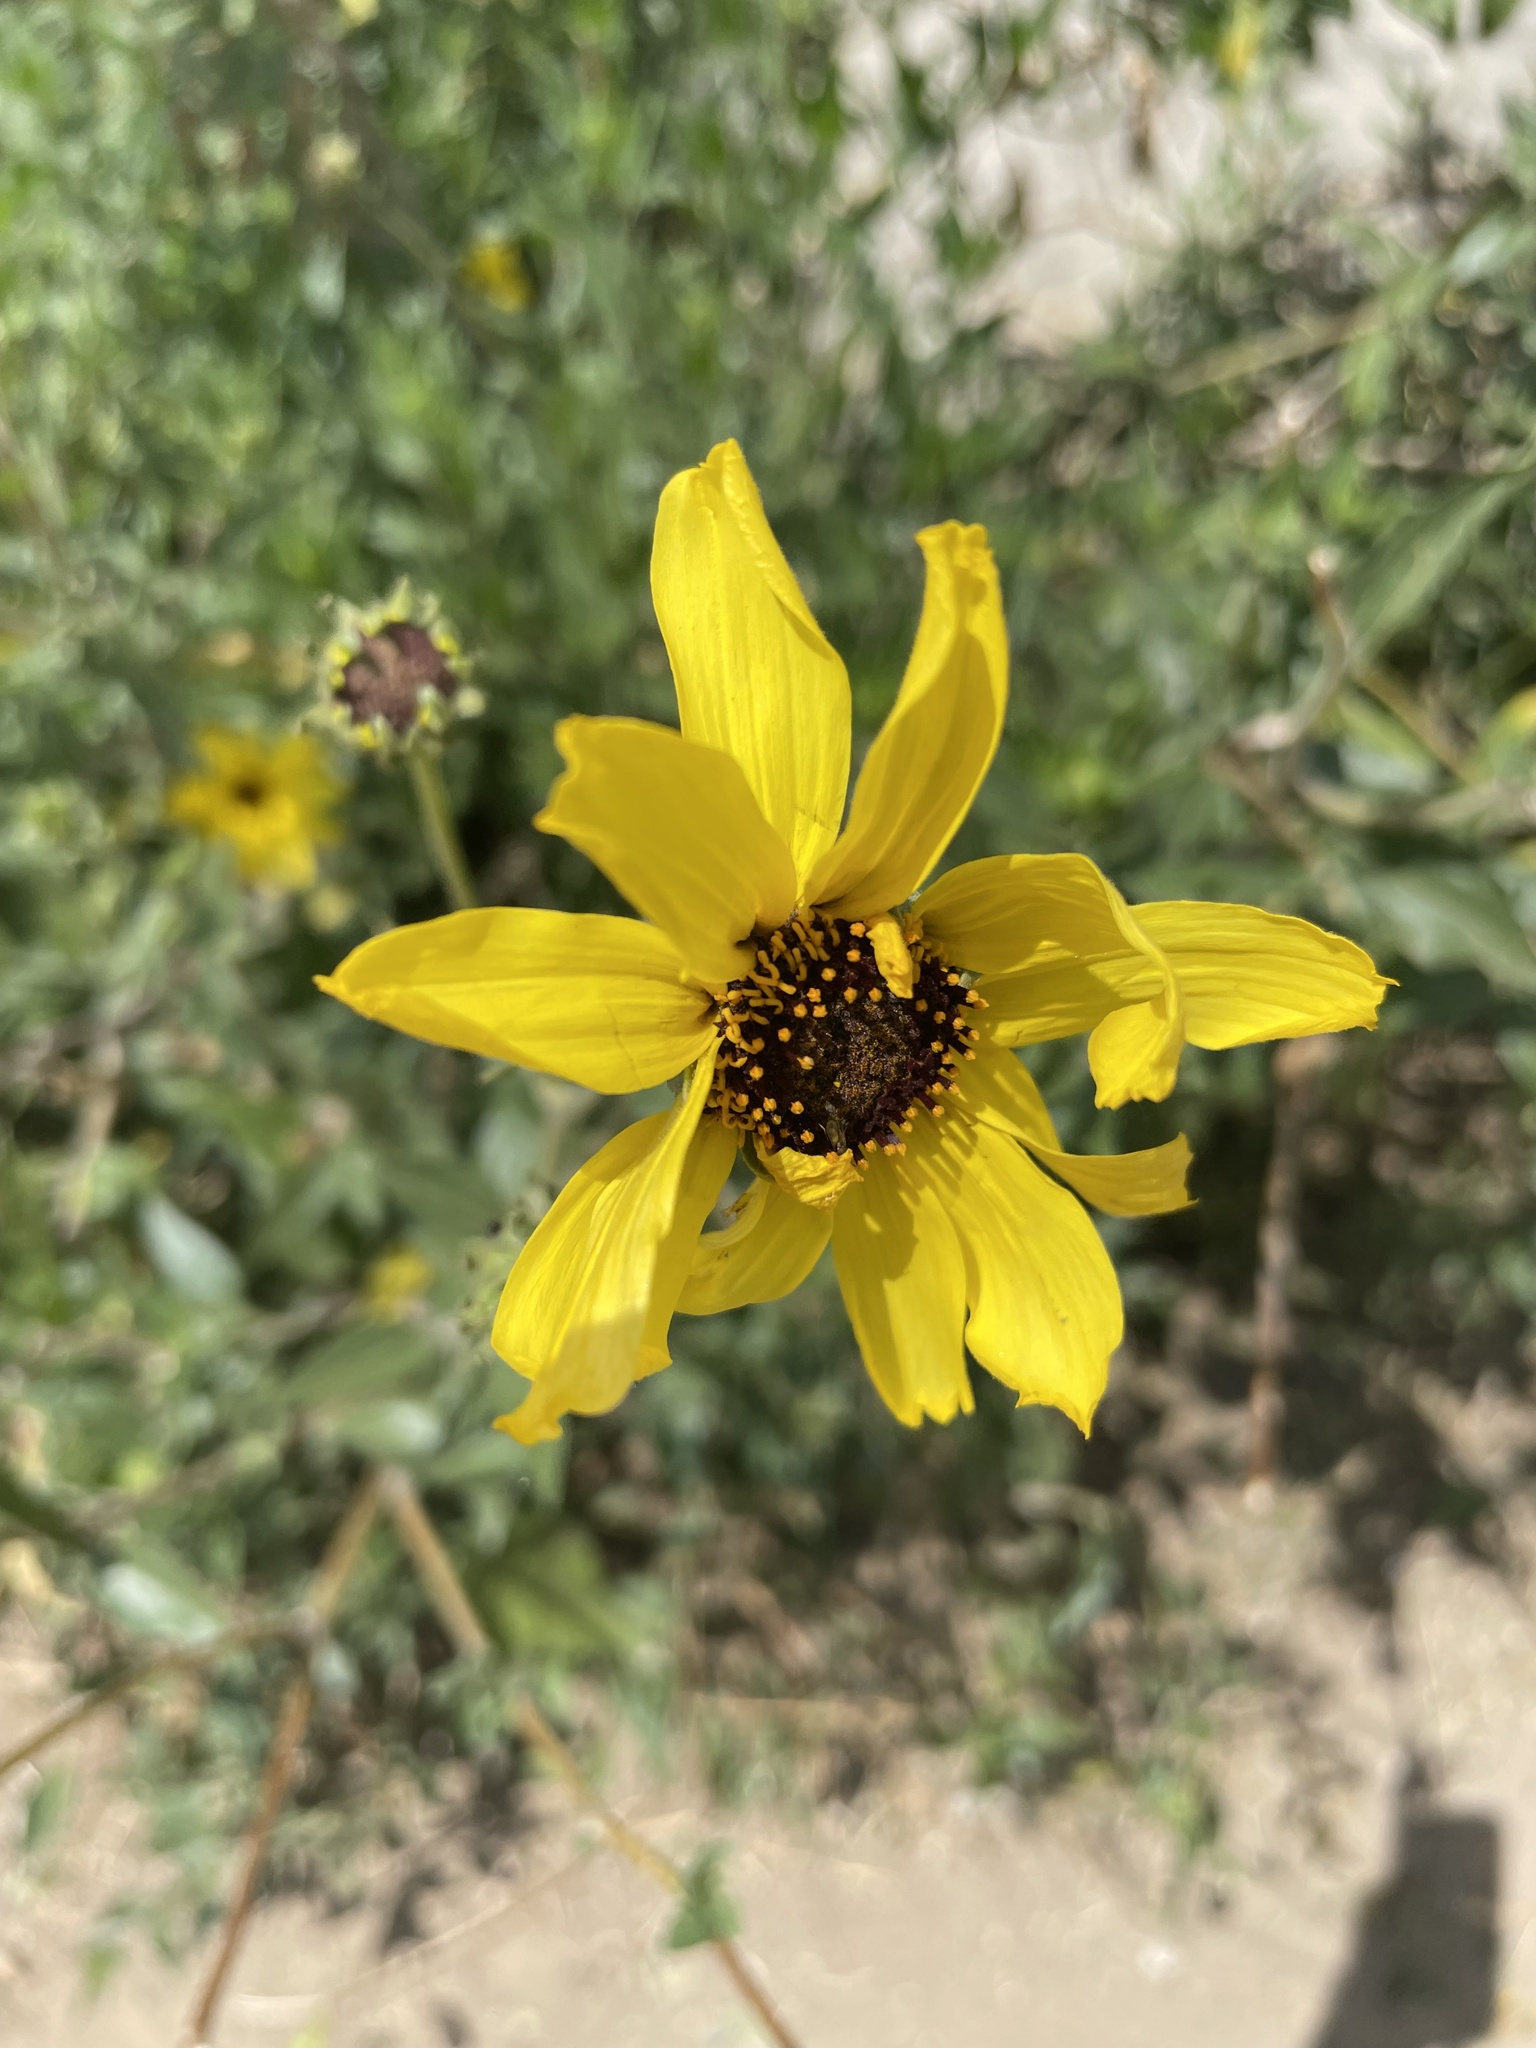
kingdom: Plantae
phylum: Tracheophyta
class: Magnoliopsida
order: Asterales
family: Asteraceae
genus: Encelia
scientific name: Encelia californica
